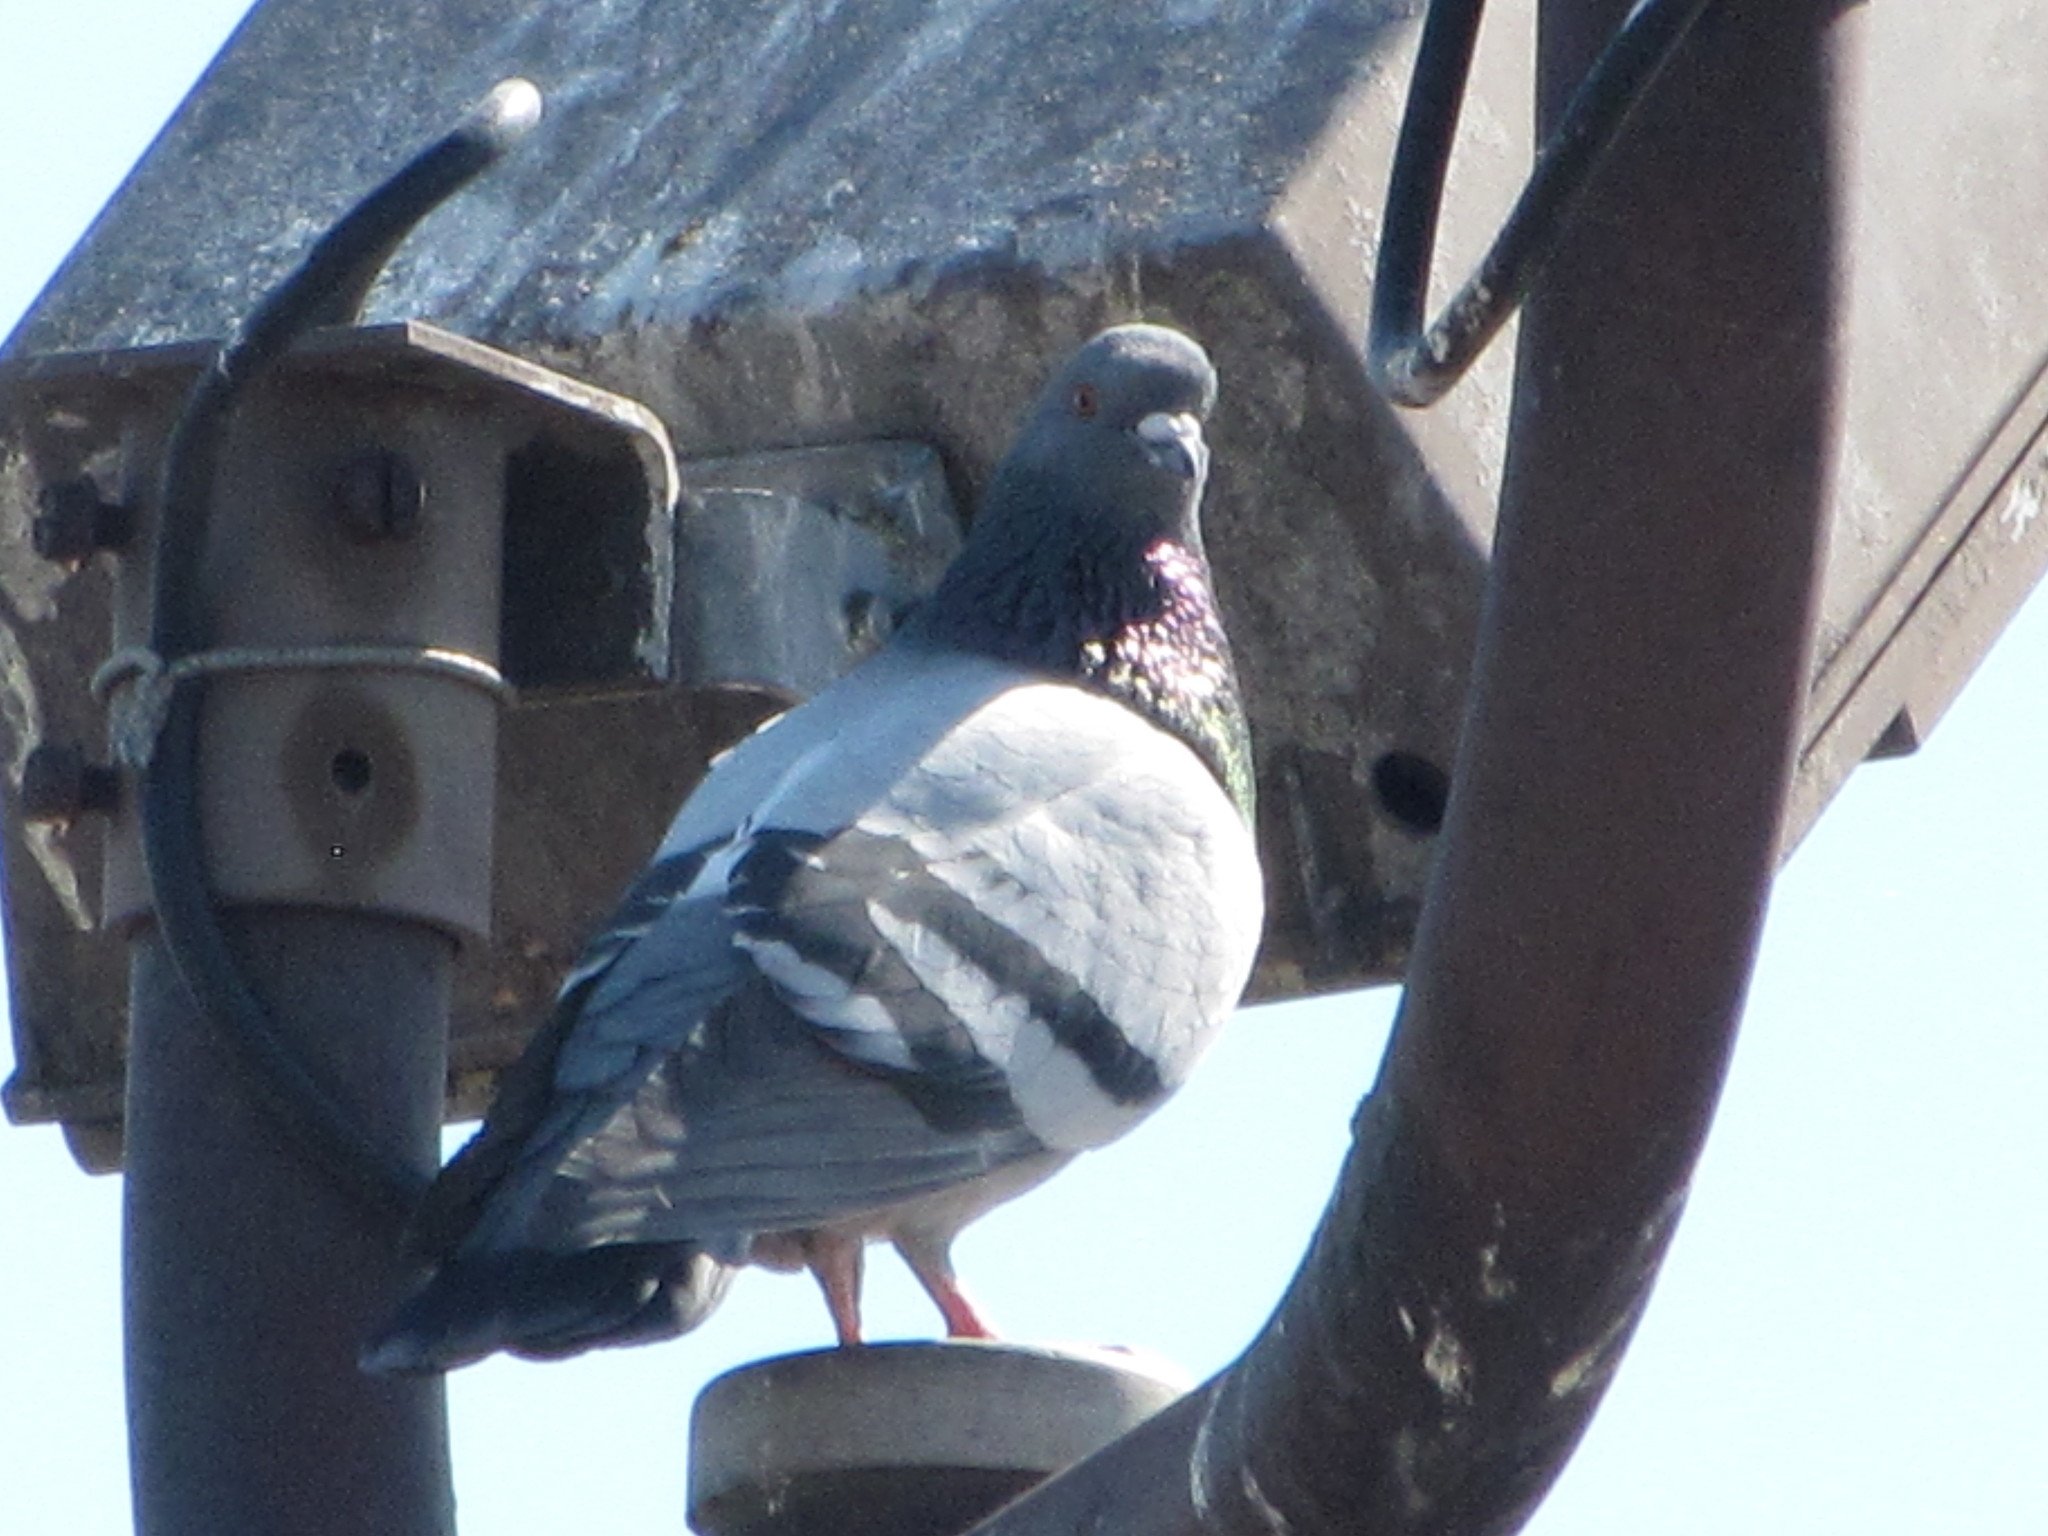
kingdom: Animalia
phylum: Chordata
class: Aves
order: Columbiformes
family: Columbidae
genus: Columba
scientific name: Columba livia
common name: Rock pigeon
